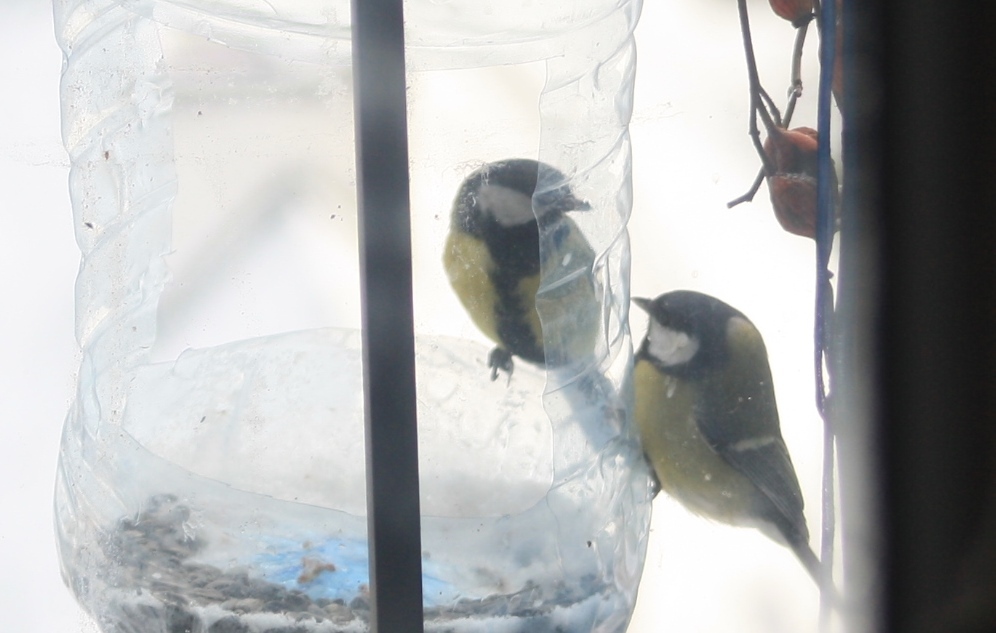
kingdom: Animalia
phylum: Chordata
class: Aves
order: Passeriformes
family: Paridae
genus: Parus
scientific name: Parus major
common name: Great tit
